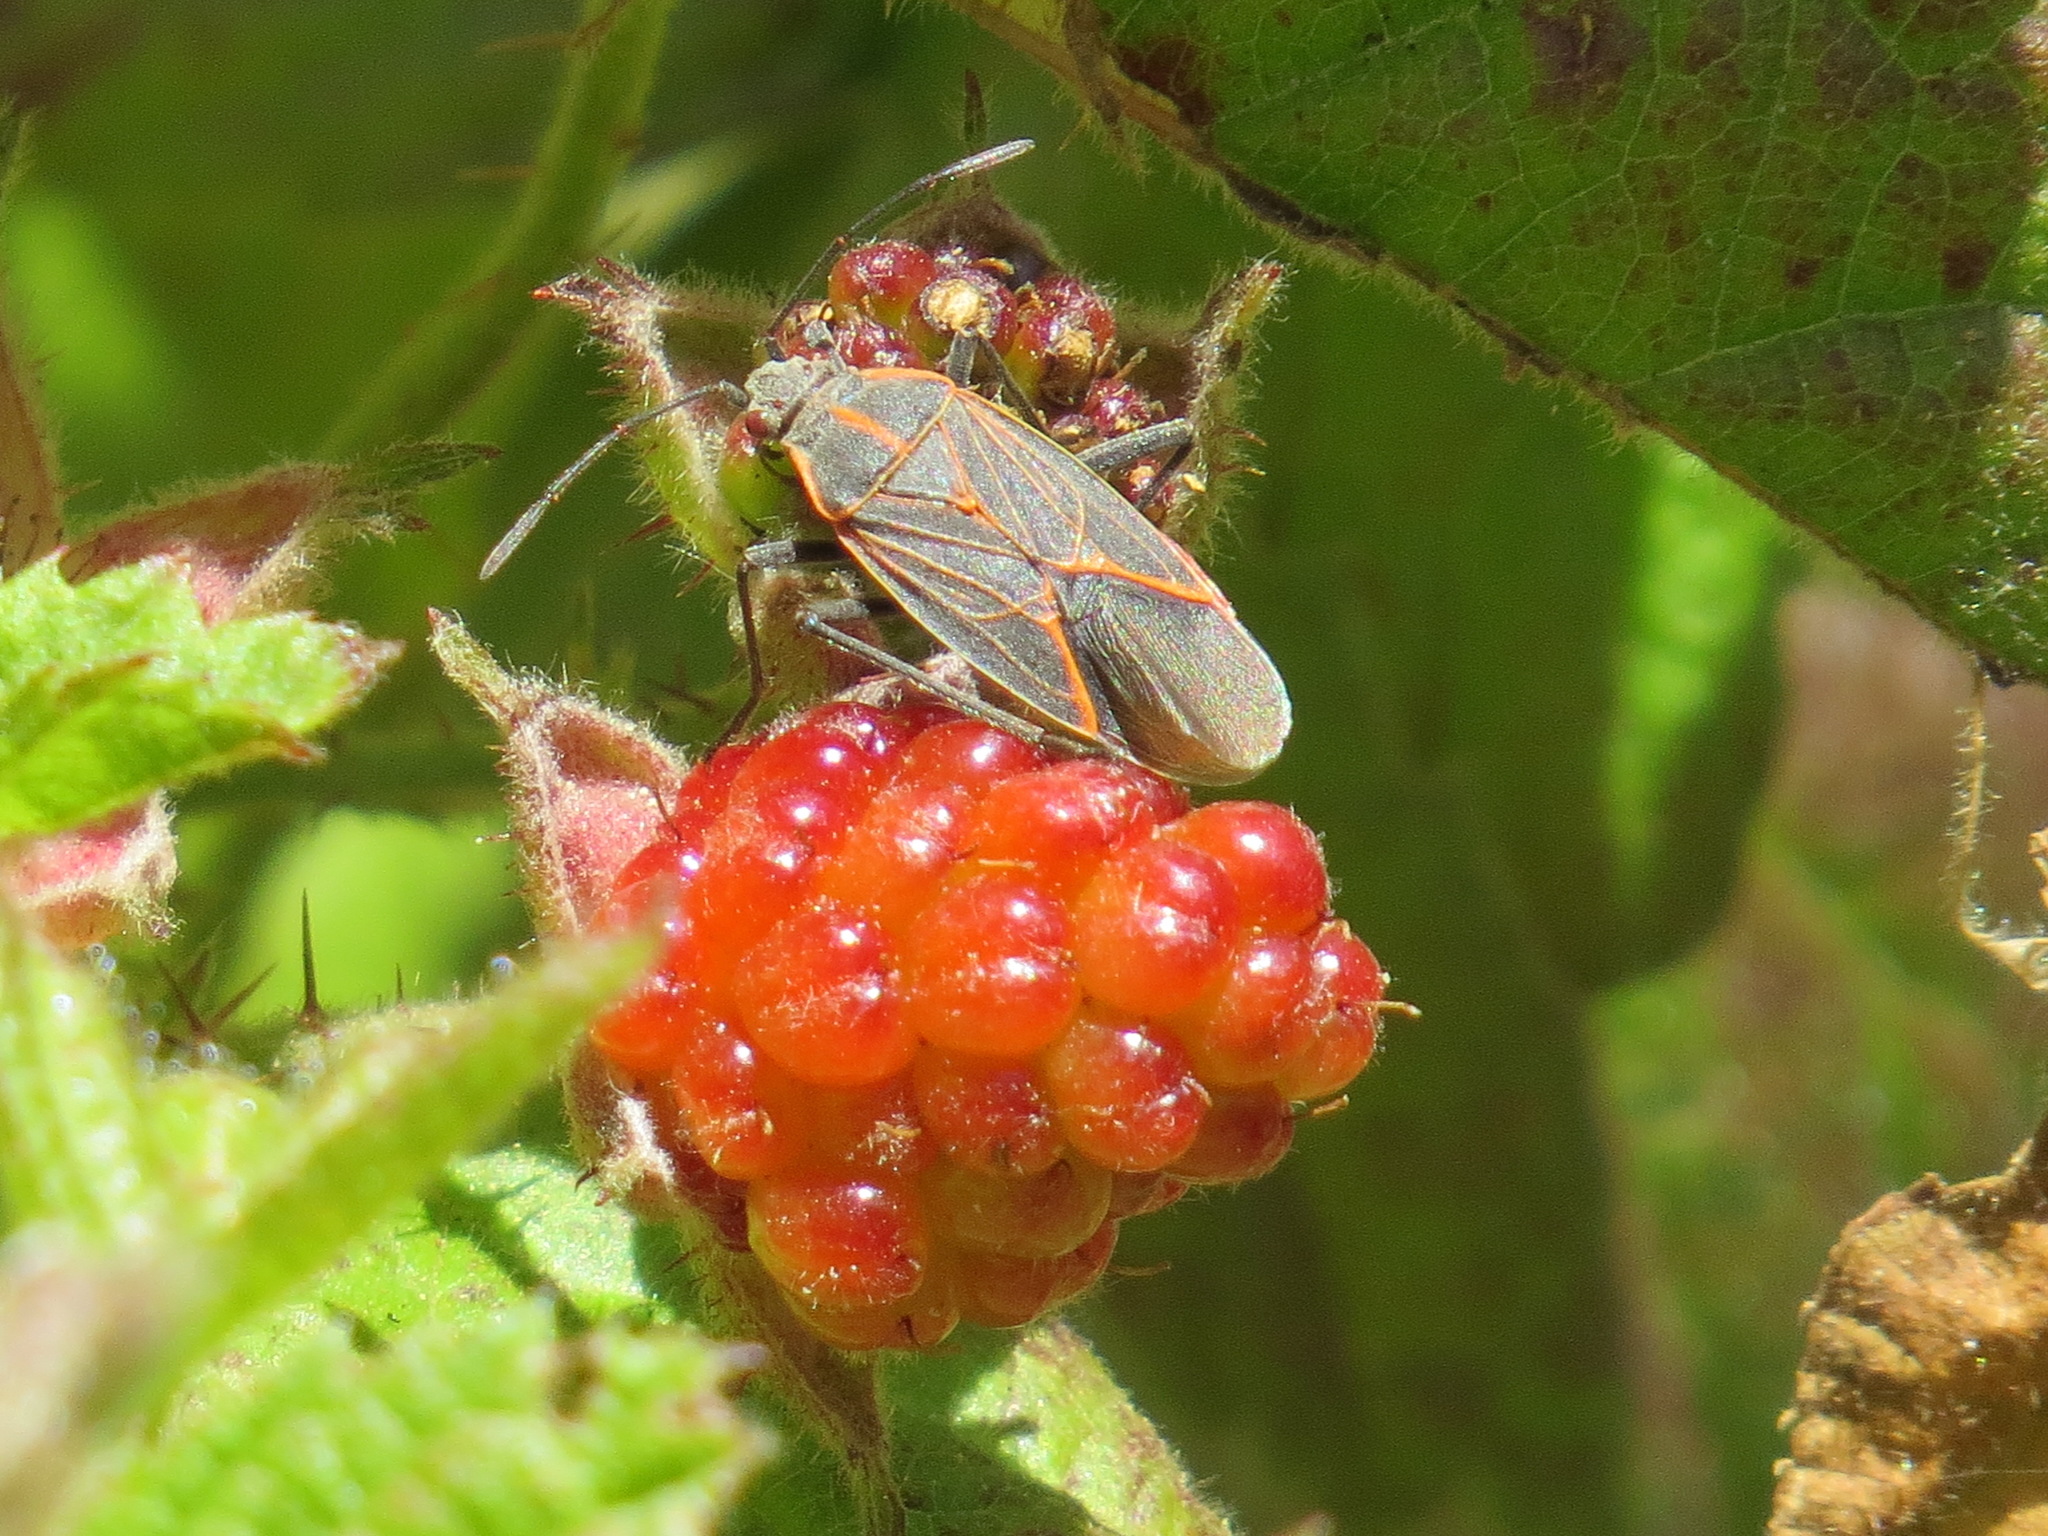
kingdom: Animalia
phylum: Arthropoda
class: Insecta
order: Hemiptera
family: Rhopalidae
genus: Boisea
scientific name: Boisea rubrolineata
